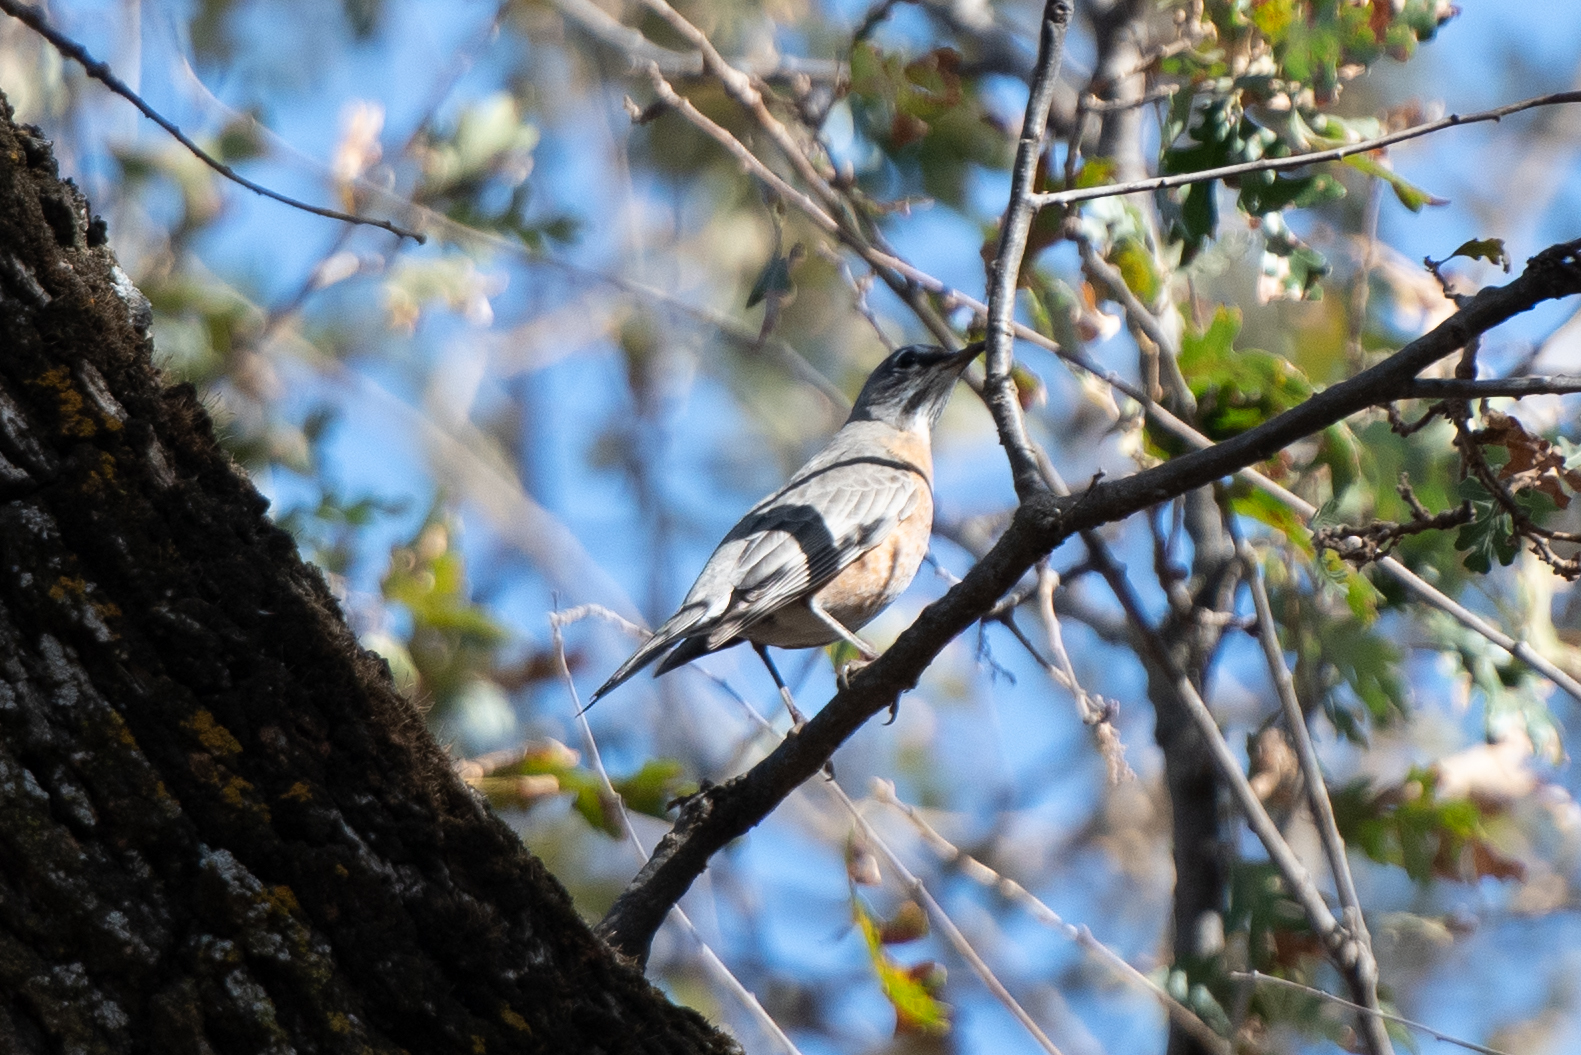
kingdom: Animalia
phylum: Chordata
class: Aves
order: Passeriformes
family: Turdidae
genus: Turdus
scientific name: Turdus migratorius
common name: American robin
